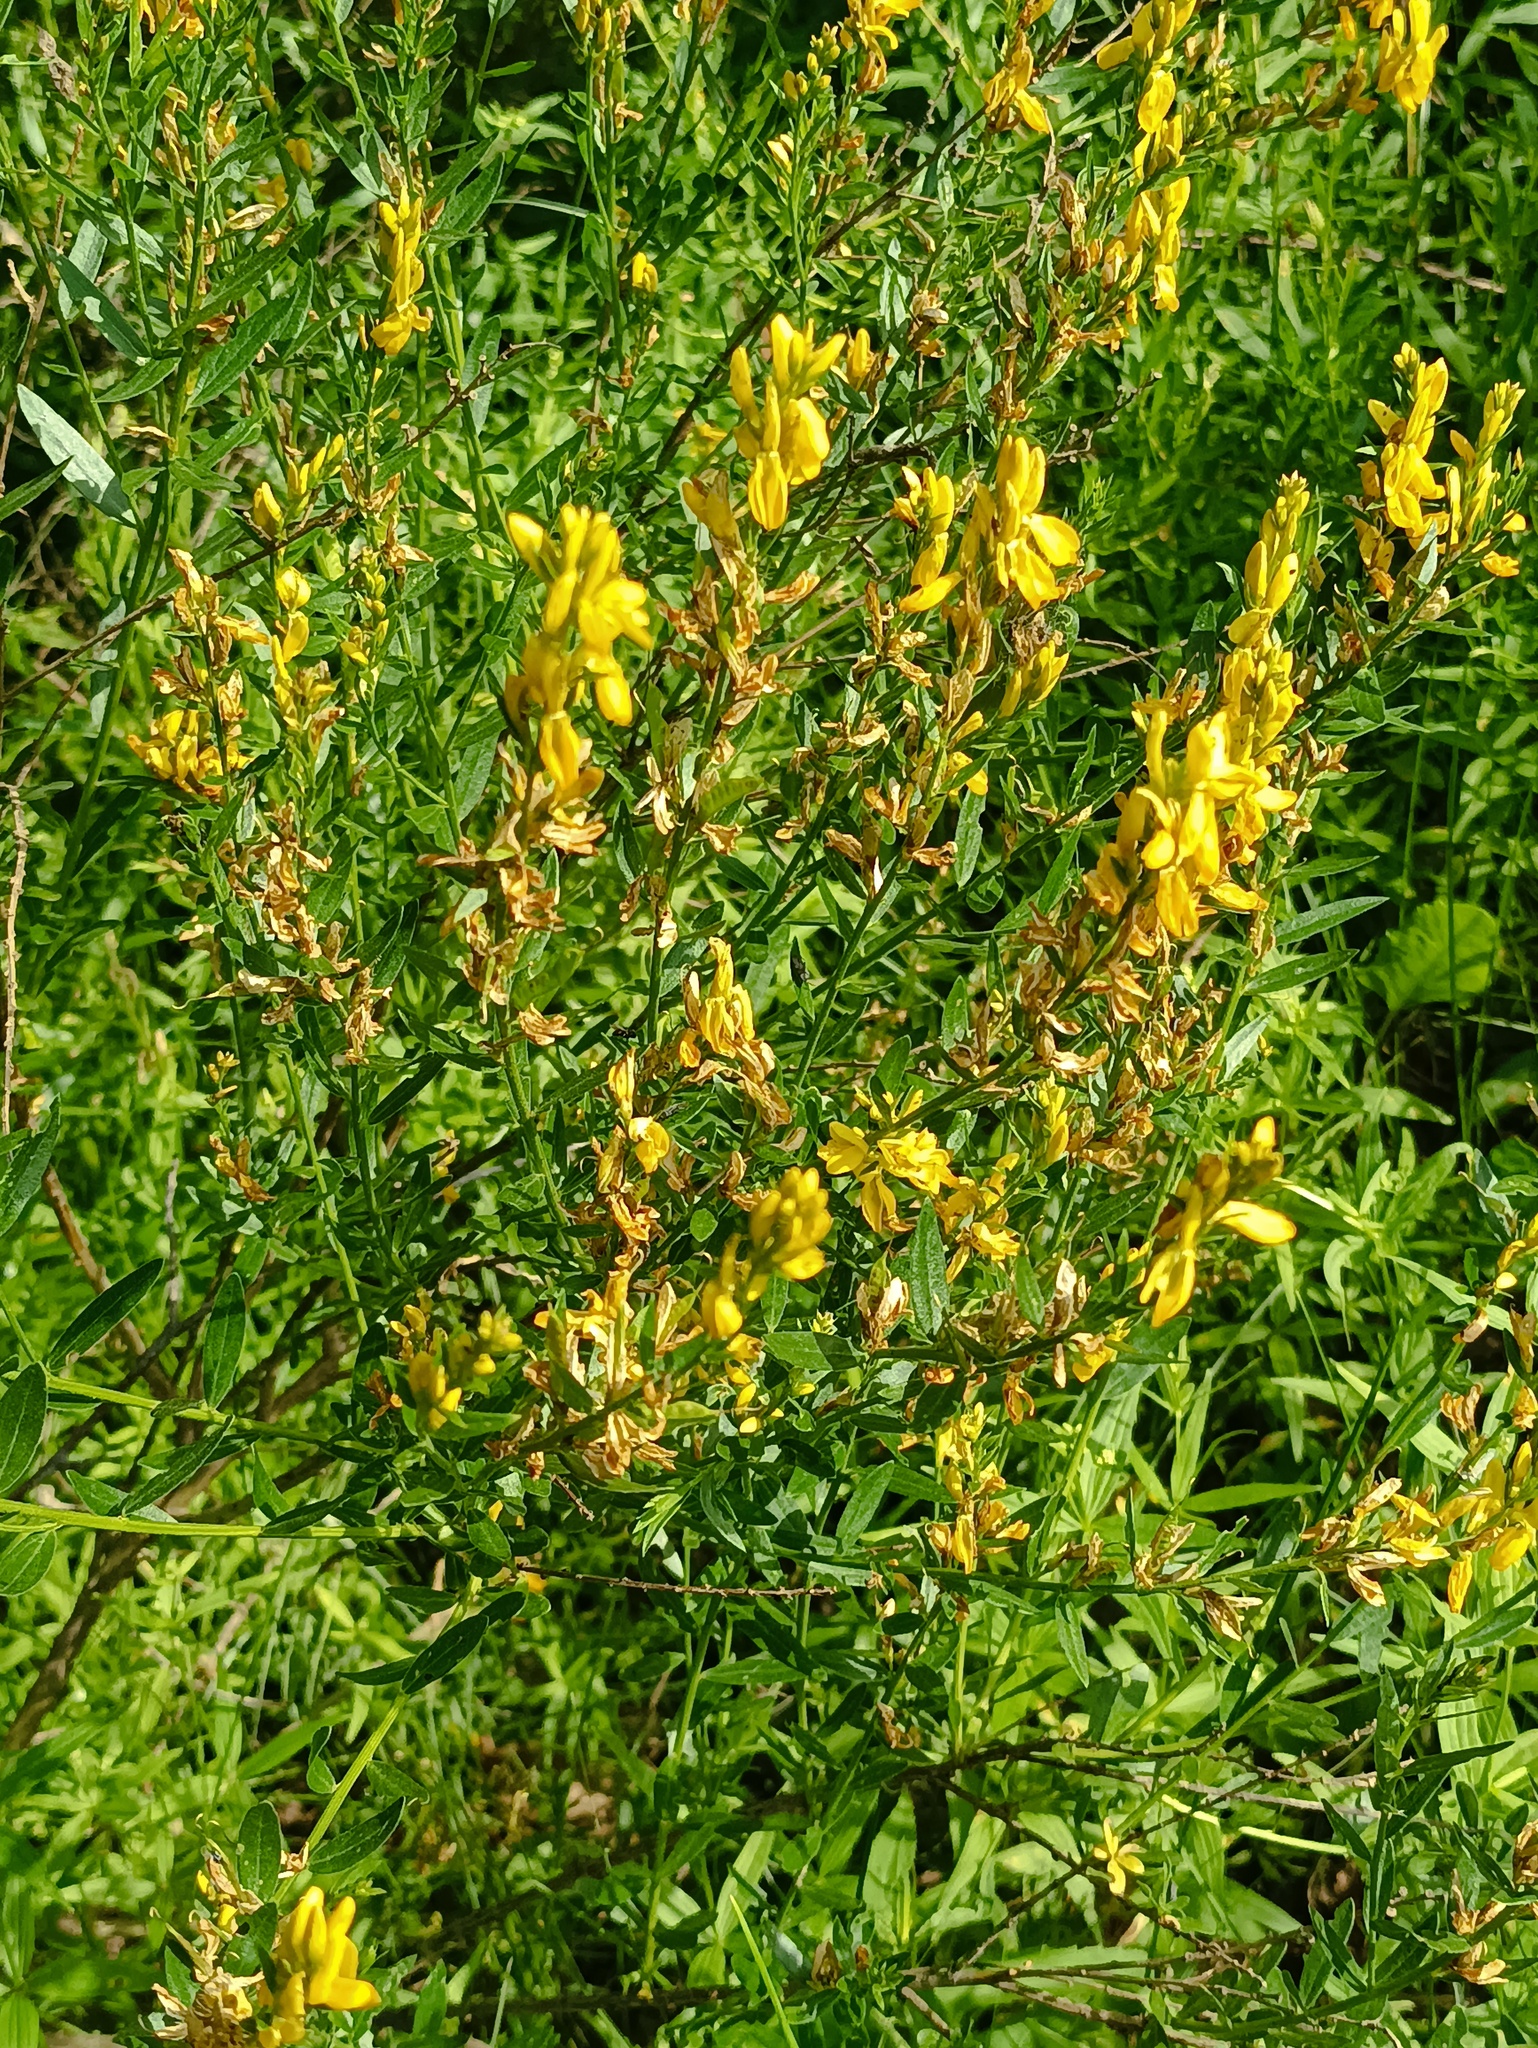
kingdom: Plantae
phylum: Tracheophyta
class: Magnoliopsida
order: Fabales
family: Fabaceae
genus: Genista
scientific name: Genista tinctoria
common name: Dyer's greenweed
